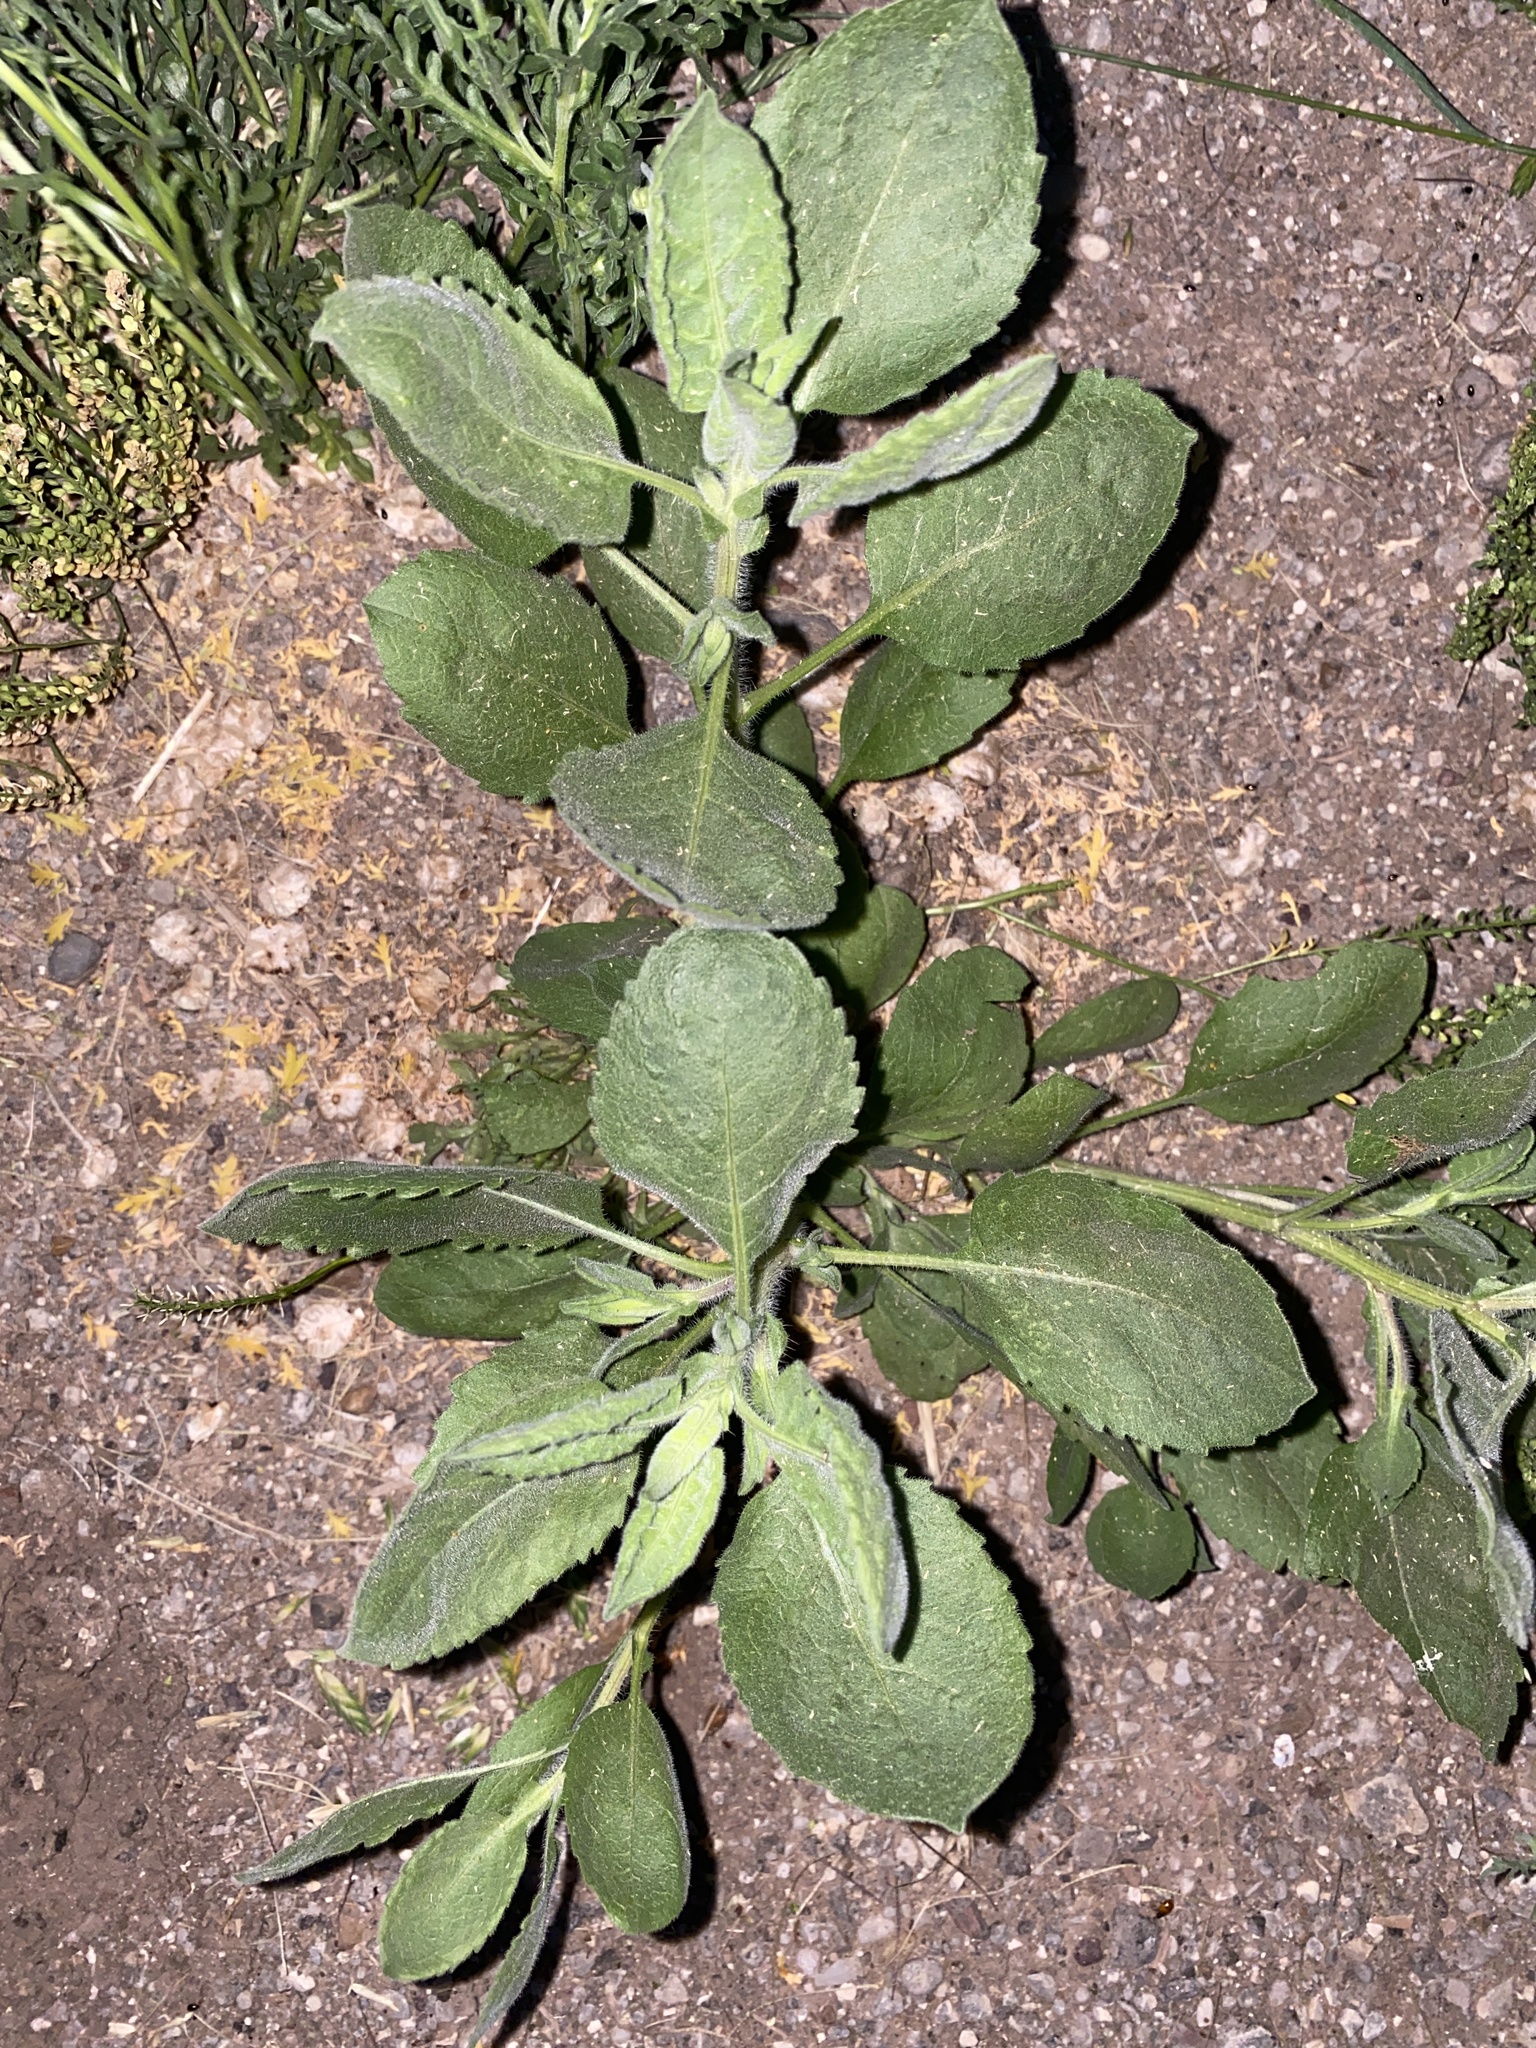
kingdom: Plantae
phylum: Tracheophyta
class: Magnoliopsida
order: Asterales
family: Asteraceae
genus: Heterotheca
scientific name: Heterotheca subaxillaris
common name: Camphorweed
